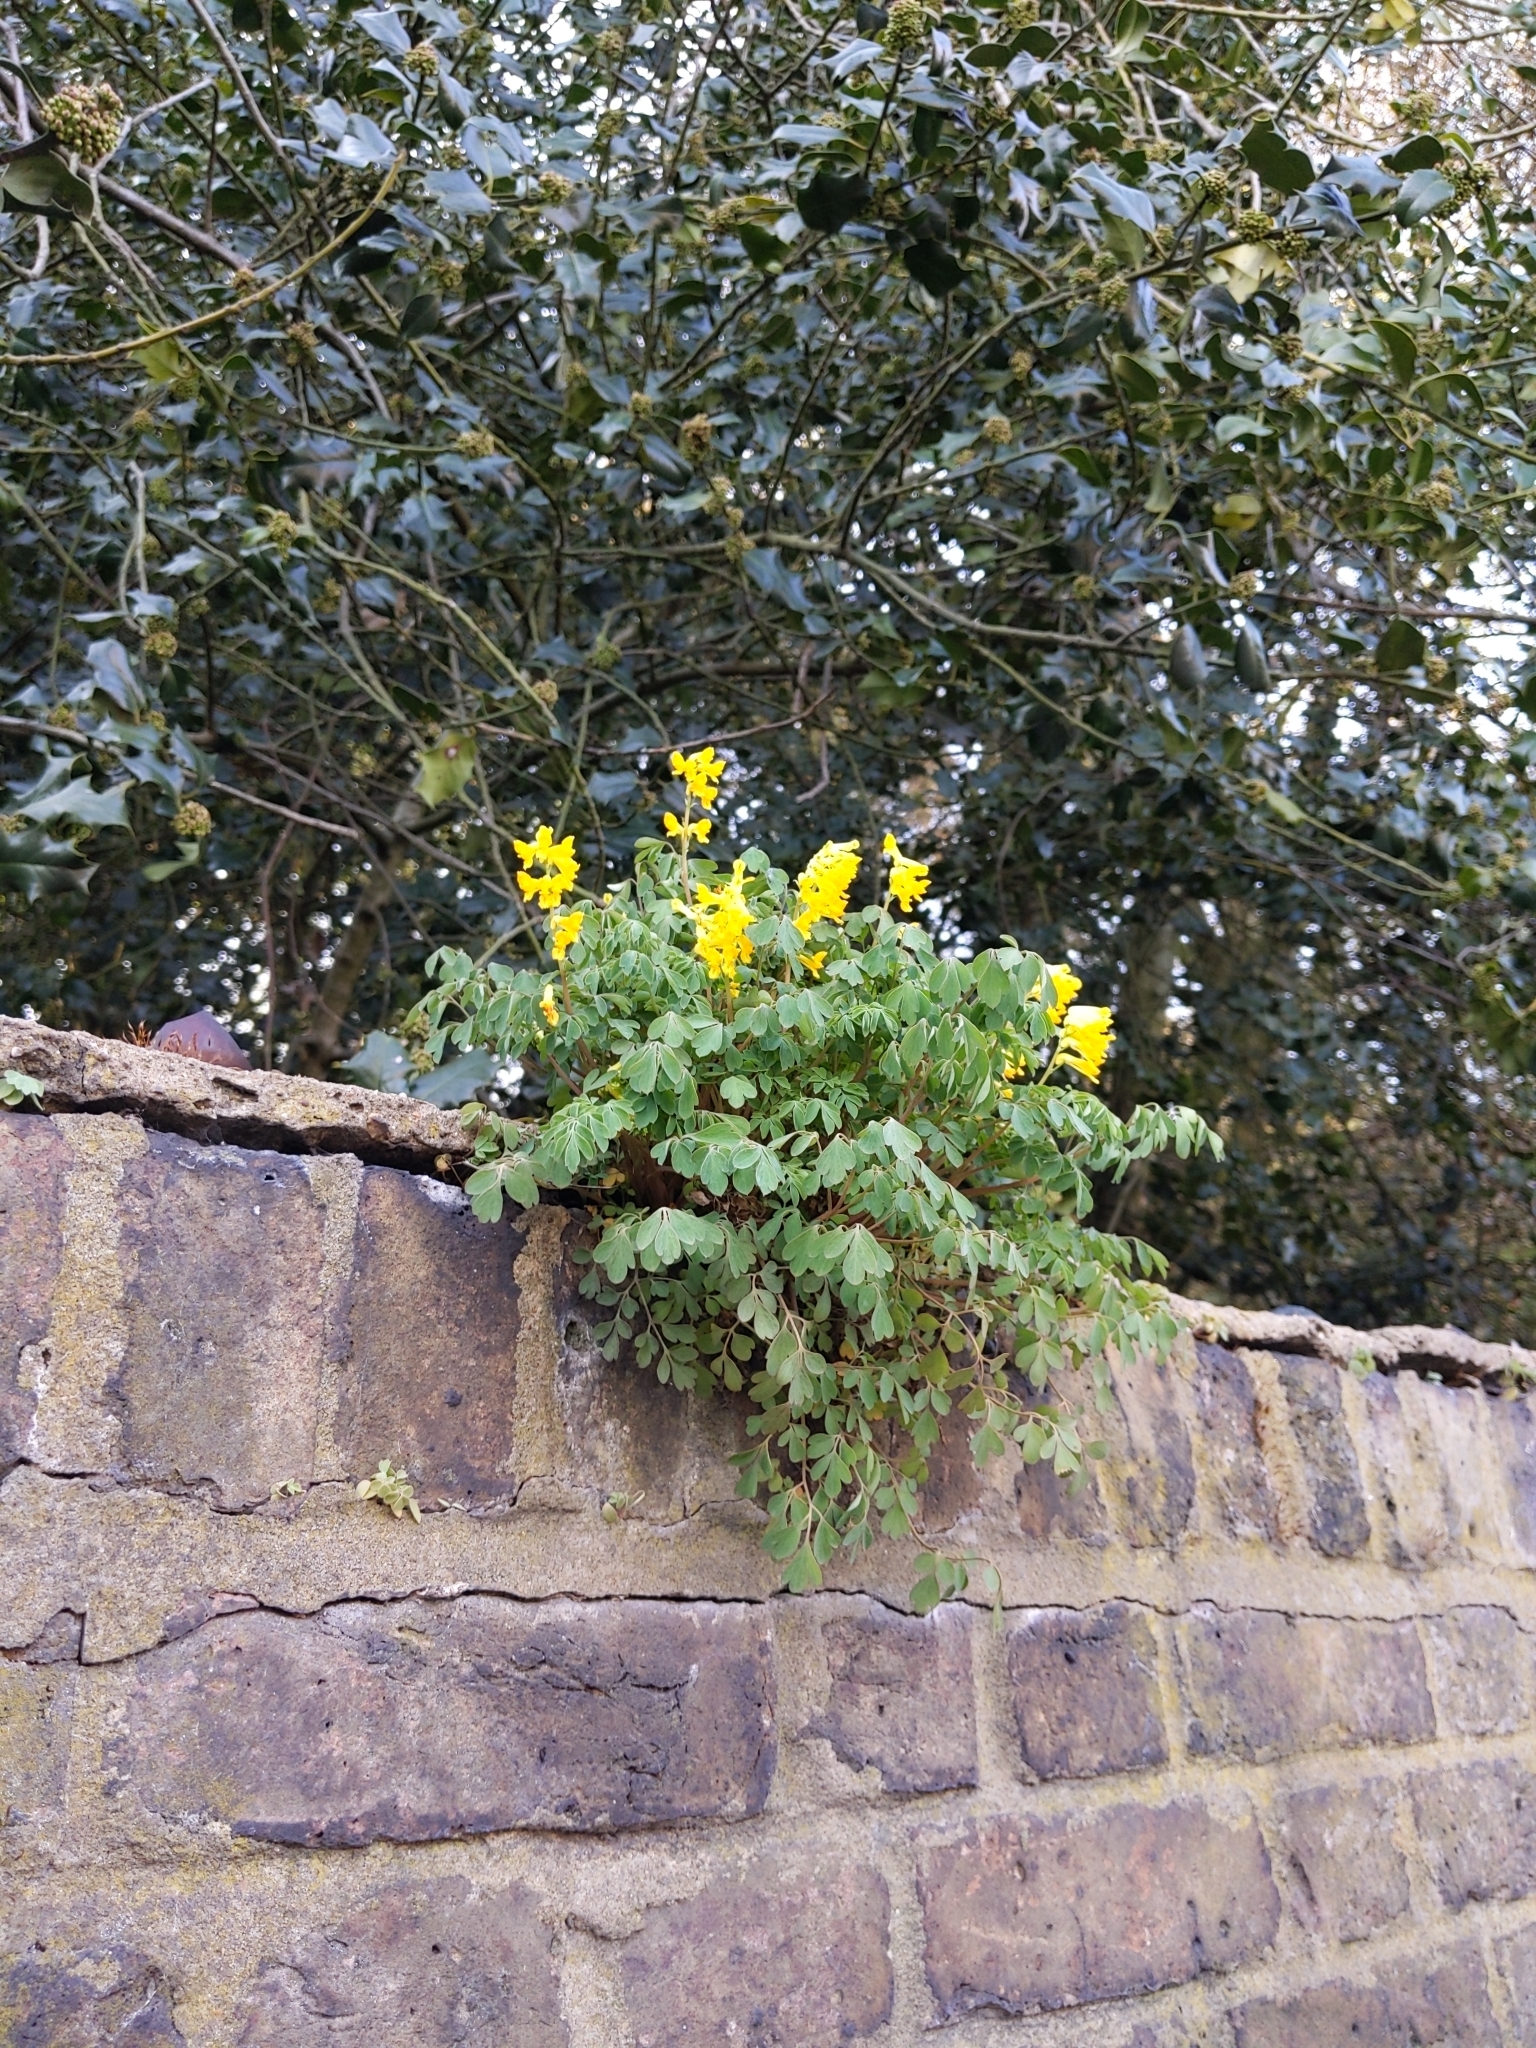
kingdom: Plantae
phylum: Tracheophyta
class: Magnoliopsida
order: Ranunculales
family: Papaveraceae
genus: Pseudofumaria
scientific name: Pseudofumaria lutea
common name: Yellow corydalis
